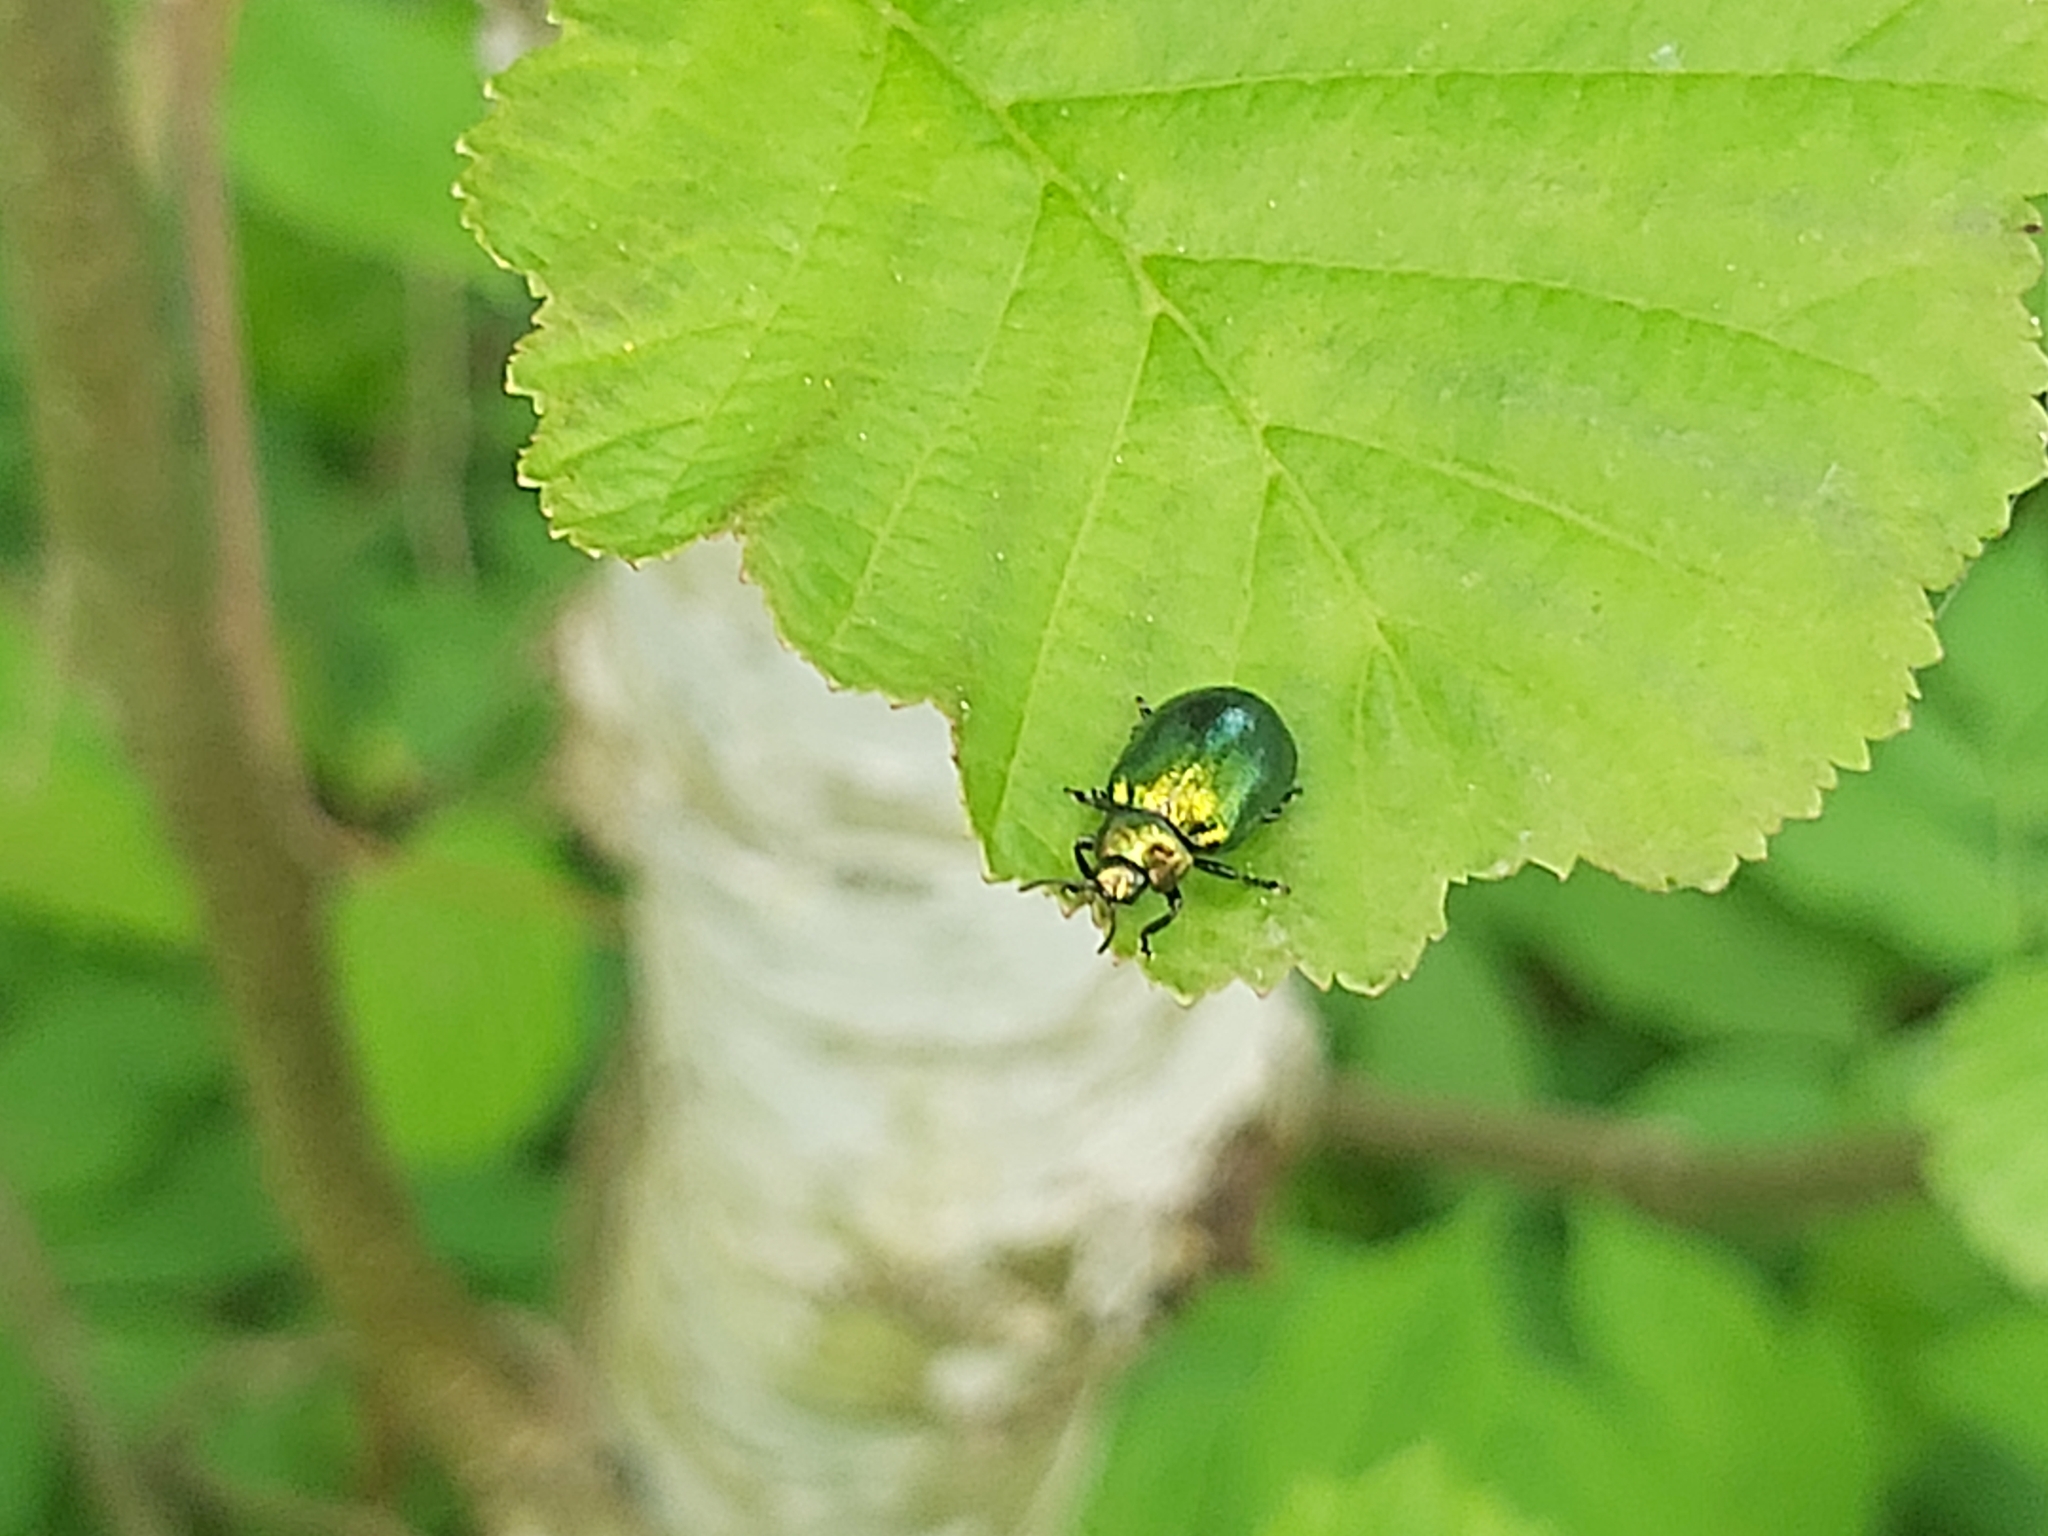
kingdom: Animalia
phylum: Arthropoda
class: Insecta
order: Coleoptera
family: Chrysomelidae
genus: Plagiosterna
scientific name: Plagiosterna aenea
